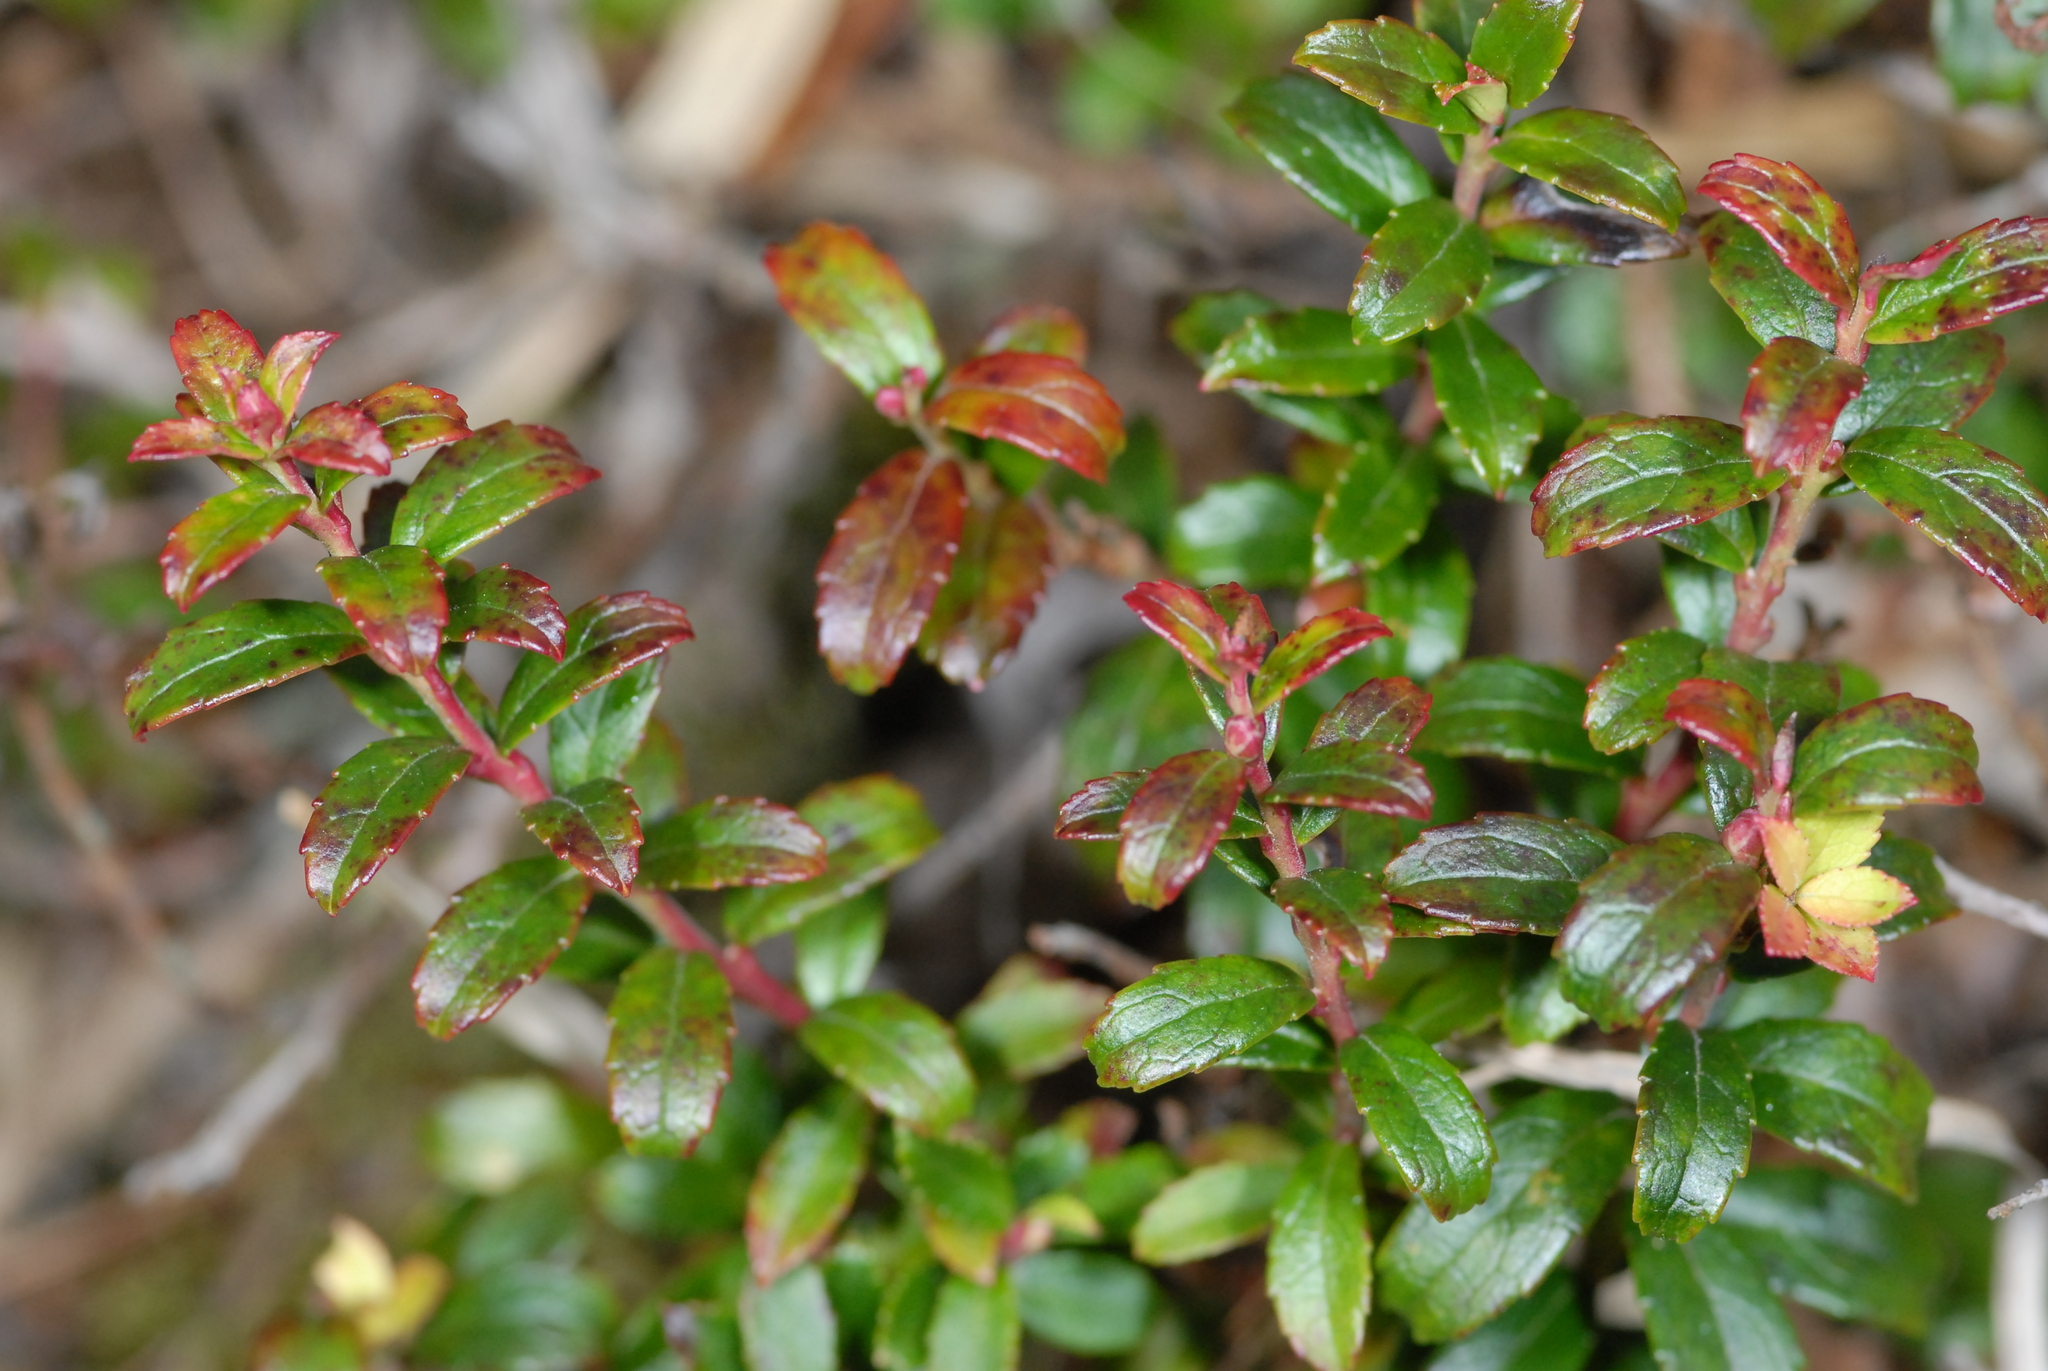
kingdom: Plantae
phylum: Tracheophyta
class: Magnoliopsida
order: Ericales
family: Ericaceae
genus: Gaultheria
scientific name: Gaultheria borneensis
